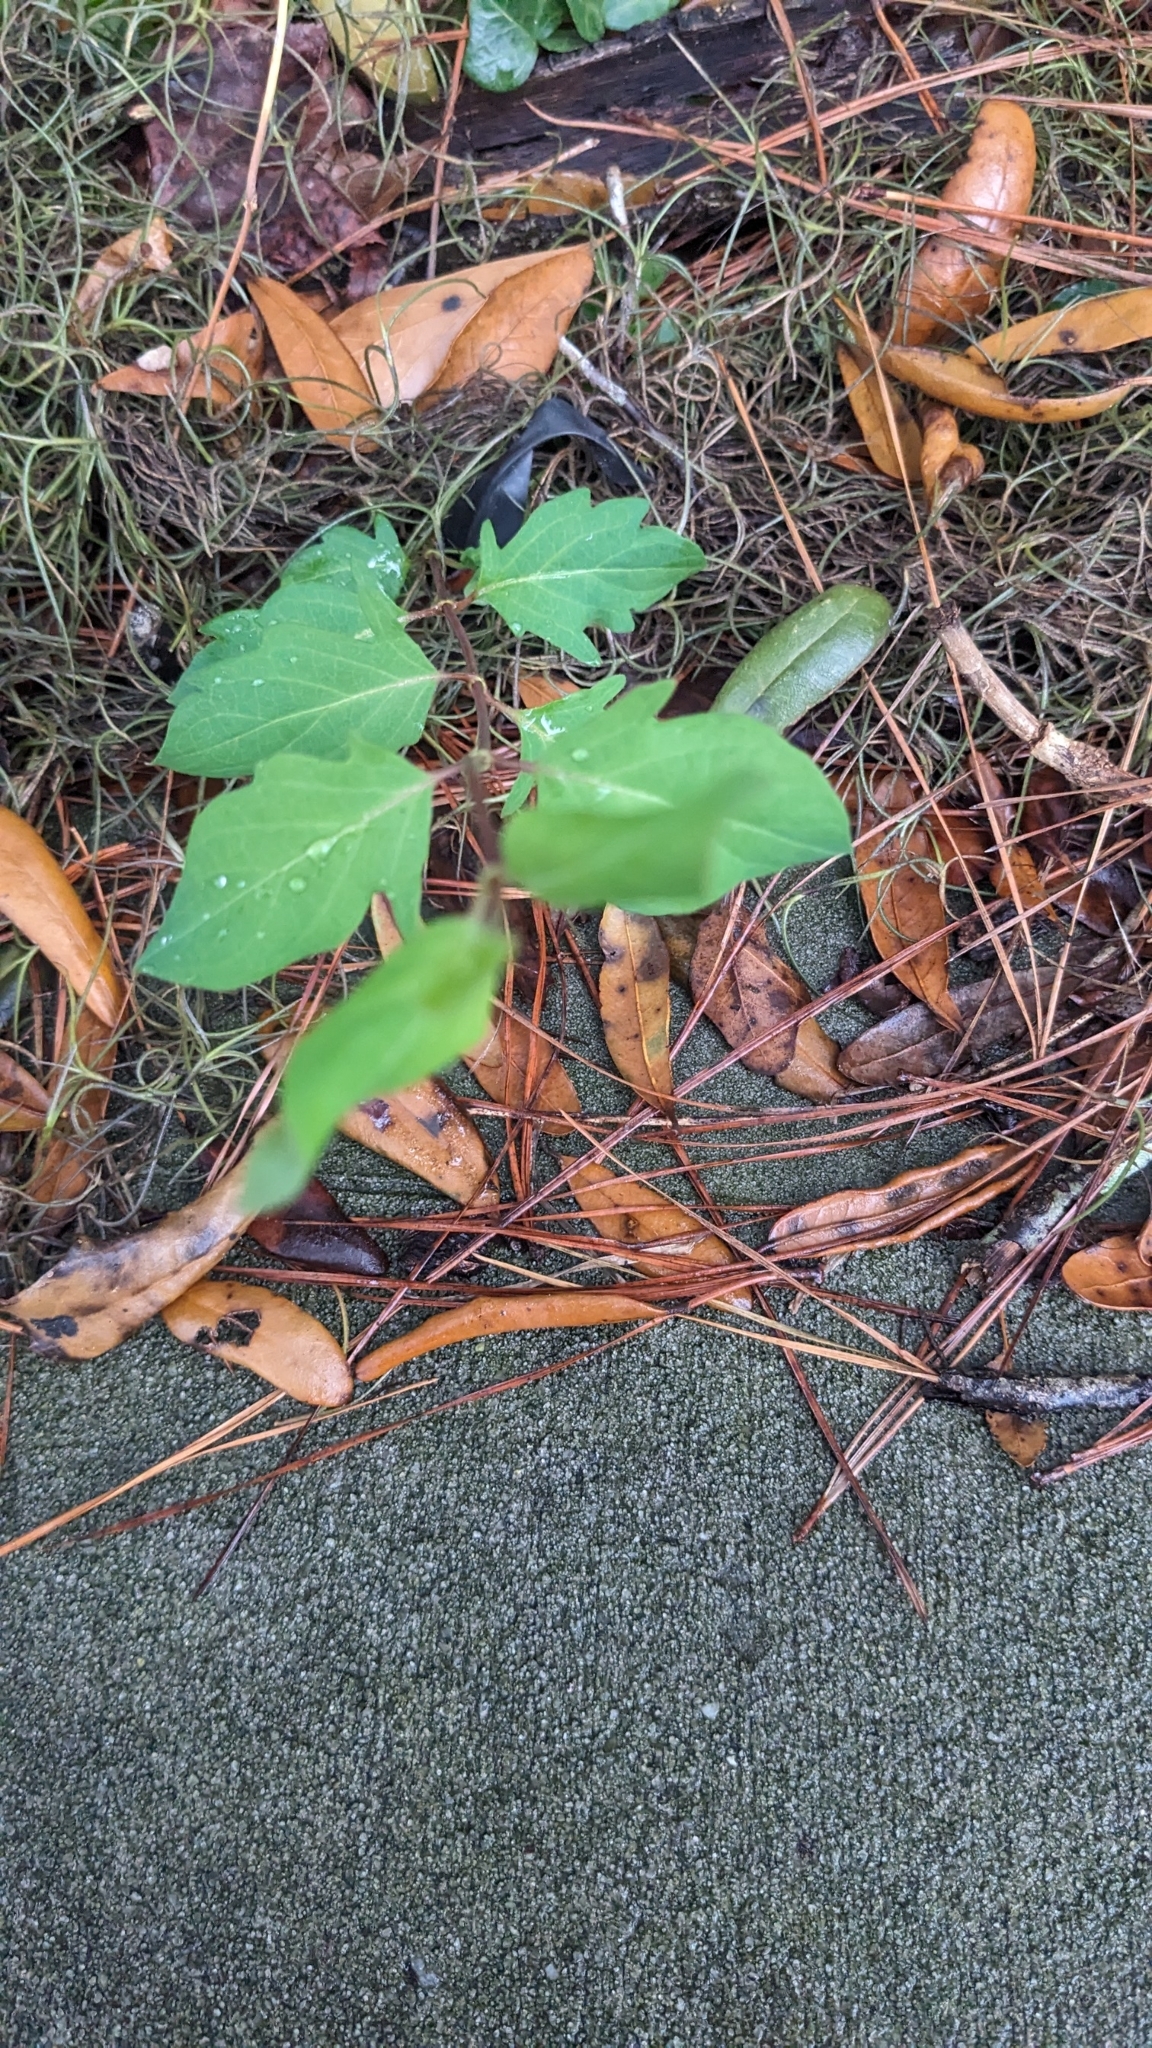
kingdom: Plantae
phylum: Tracheophyta
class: Magnoliopsida
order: Dipsacales
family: Caprifoliaceae
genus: Lonicera
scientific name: Lonicera japonica
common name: Japanese honeysuckle
